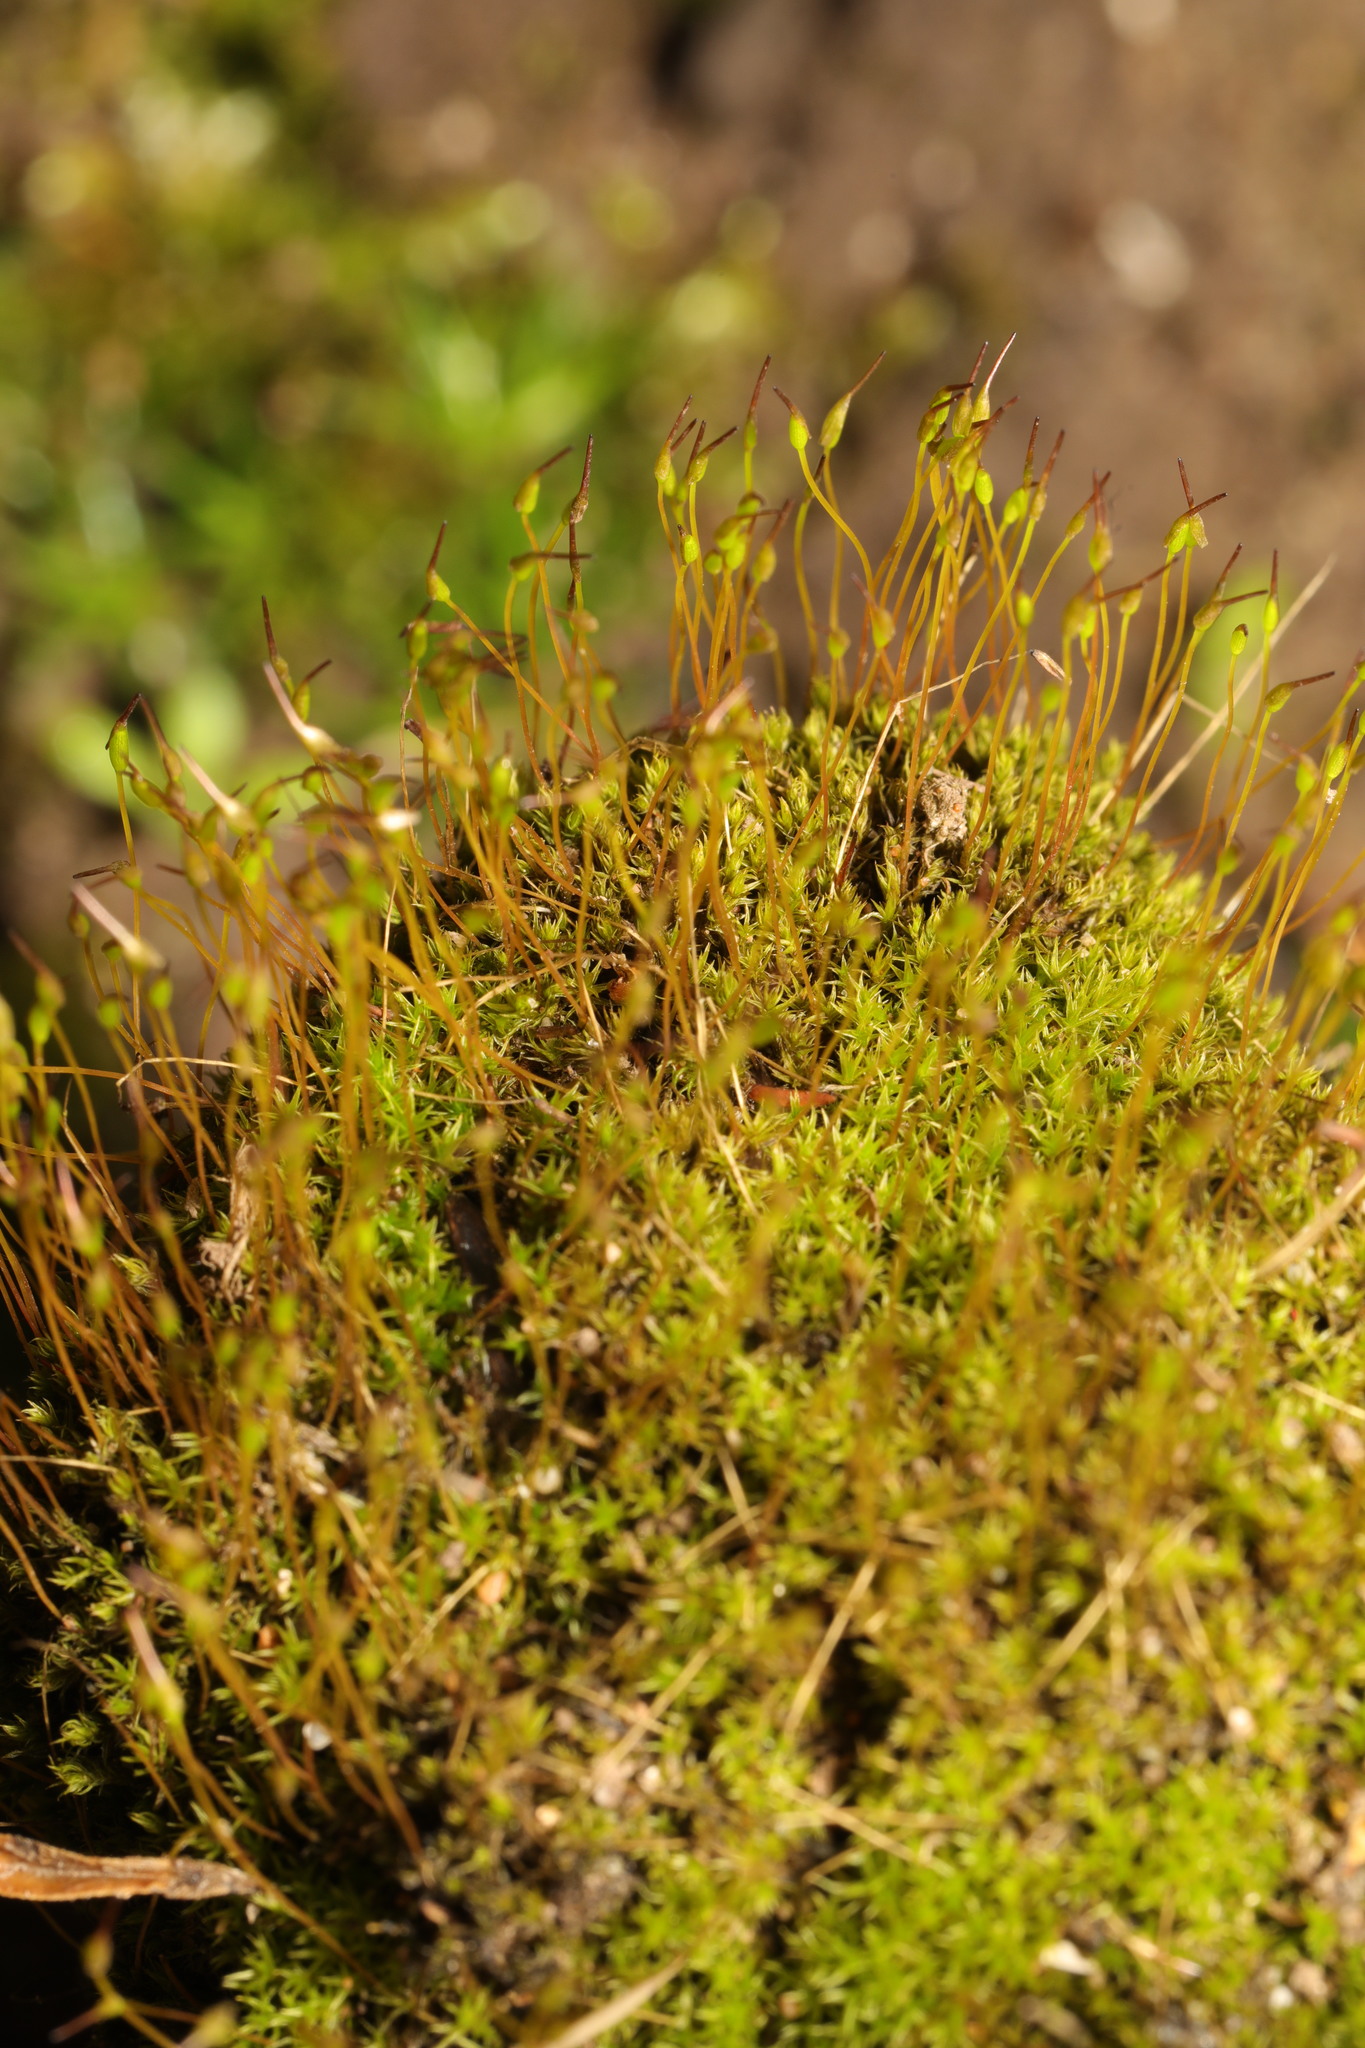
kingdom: Plantae
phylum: Bryophyta
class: Bryopsida
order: Dicranales
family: Ditrichaceae
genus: Ceratodon
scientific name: Ceratodon purpureus
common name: Redshank
